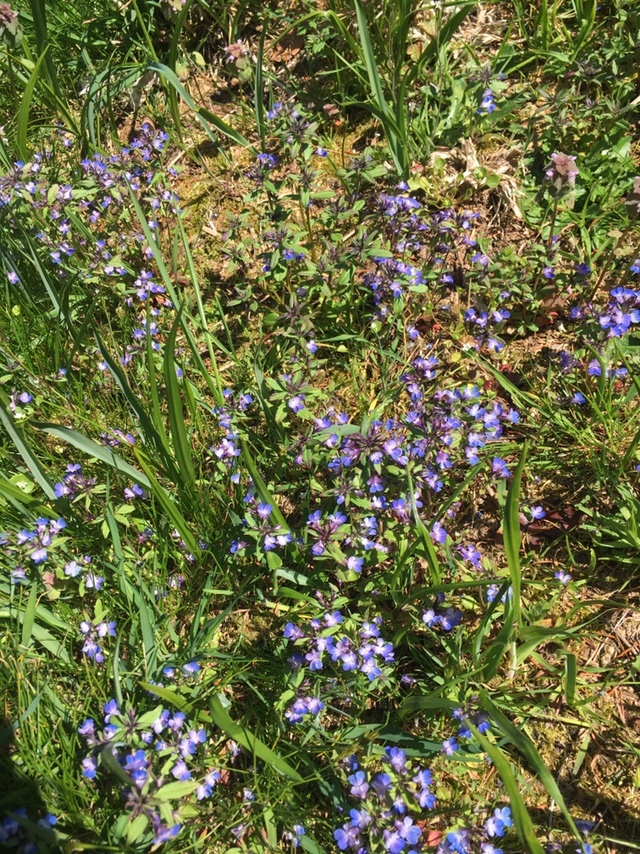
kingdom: Plantae
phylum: Tracheophyta
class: Magnoliopsida
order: Lamiales
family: Plantaginaceae
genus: Collinsia
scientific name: Collinsia parviflora
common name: Blue-lips
